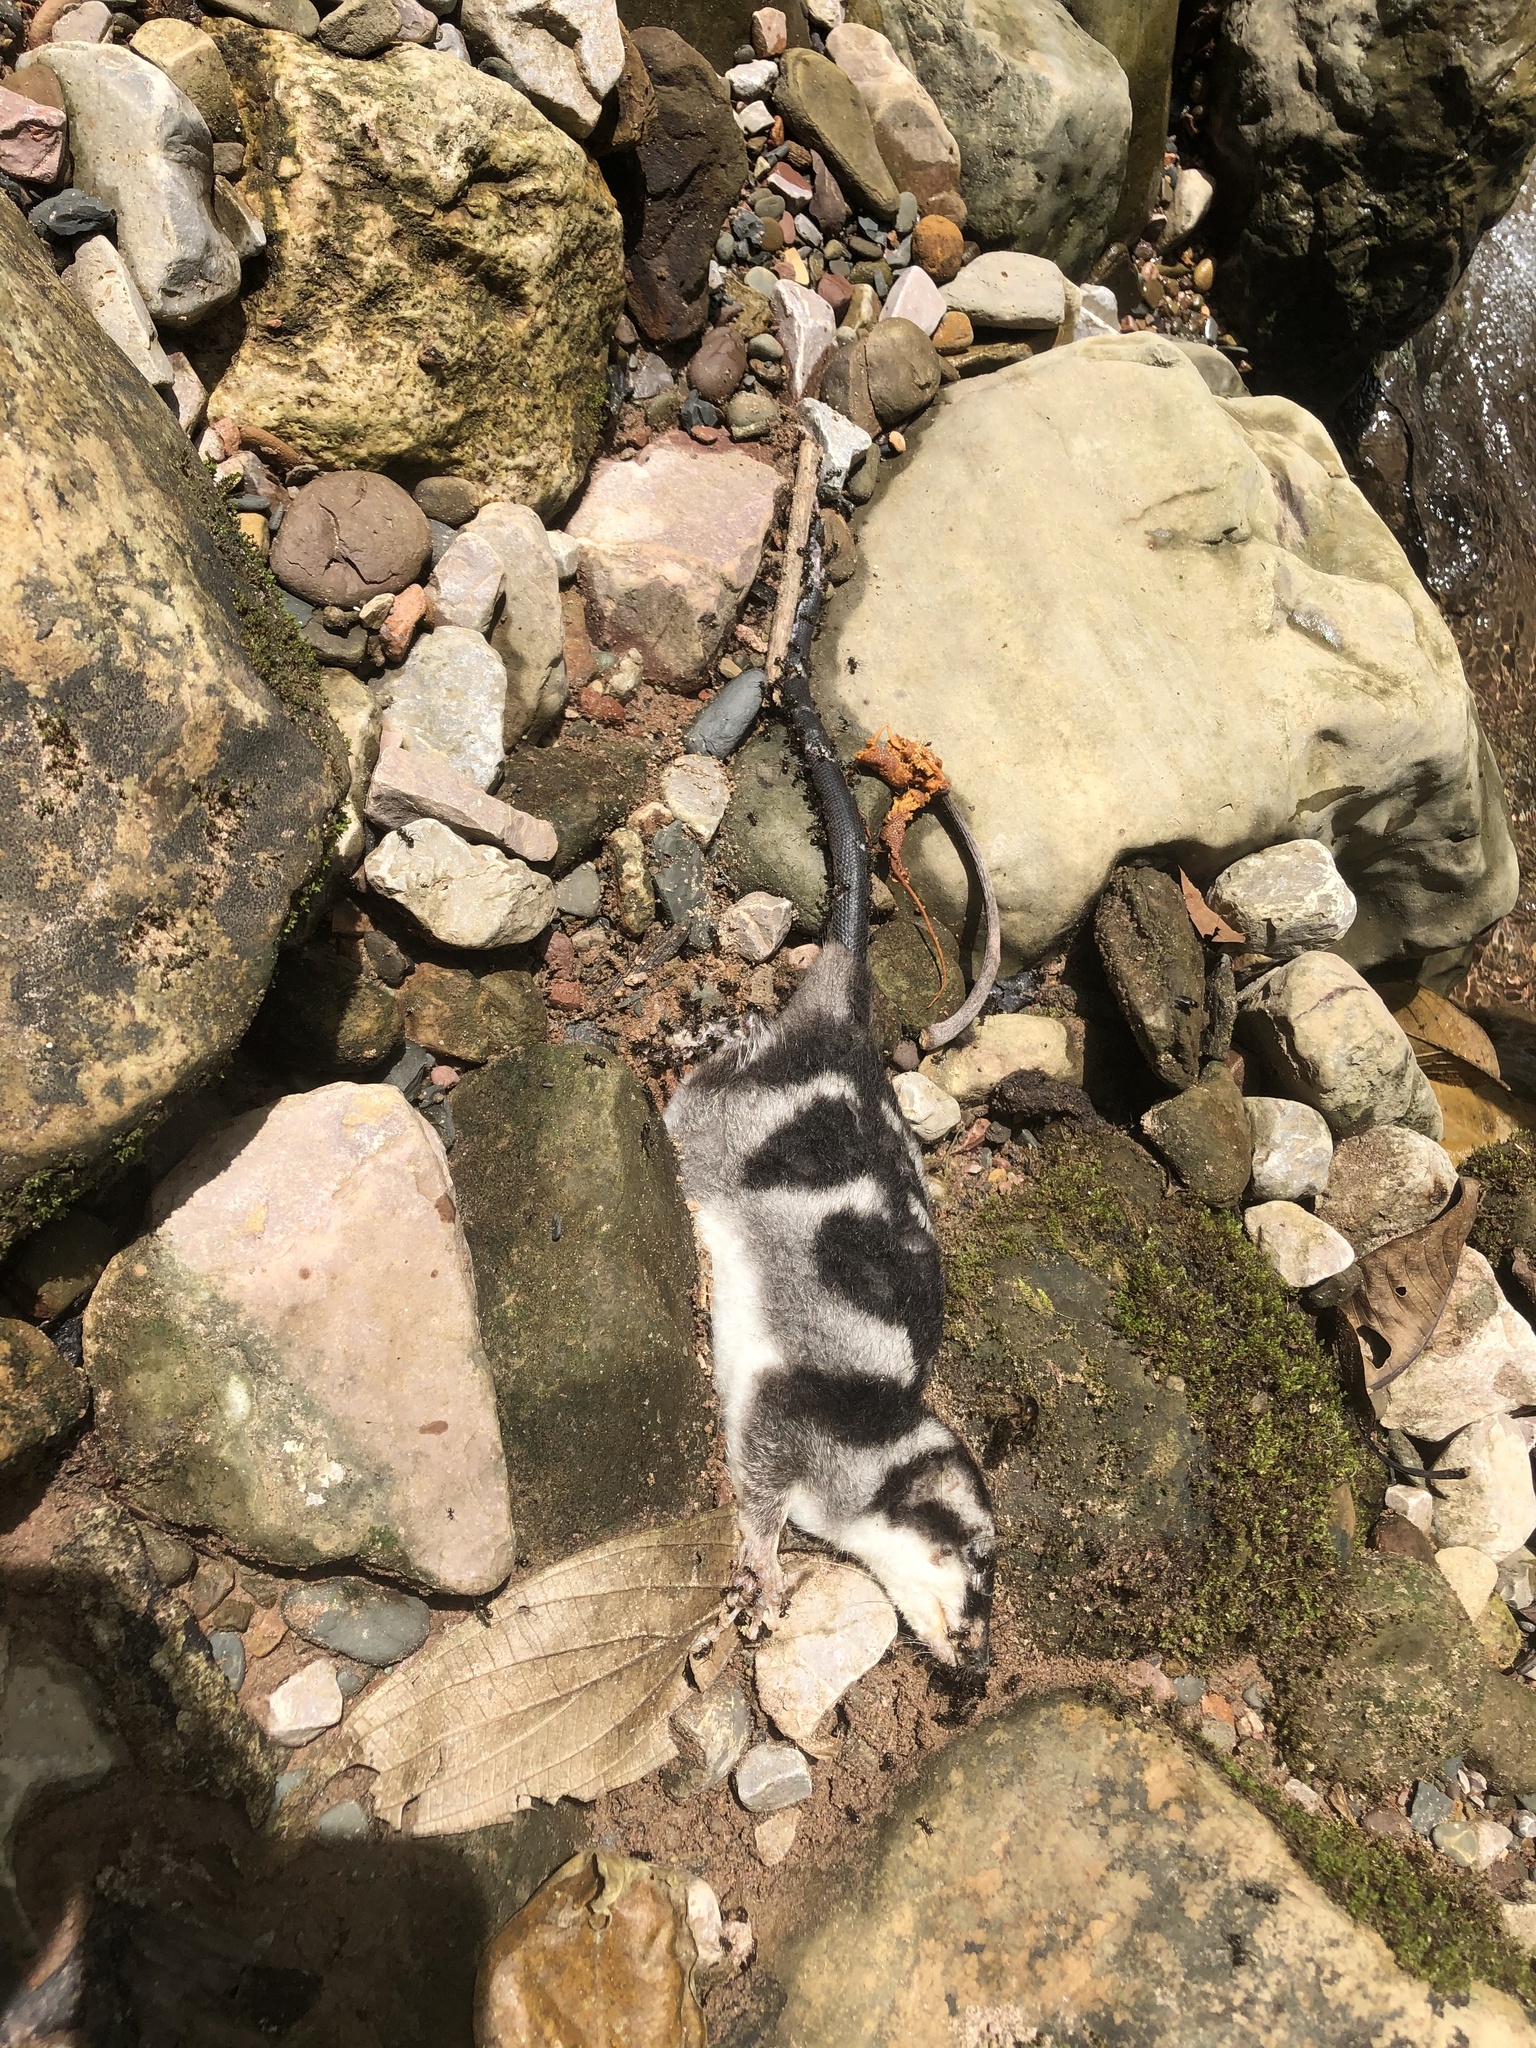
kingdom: Animalia
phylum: Chordata
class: Mammalia
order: Didelphimorphia
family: Didelphidae
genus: Chironectes
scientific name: Chironectes minimus
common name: Water opossum
